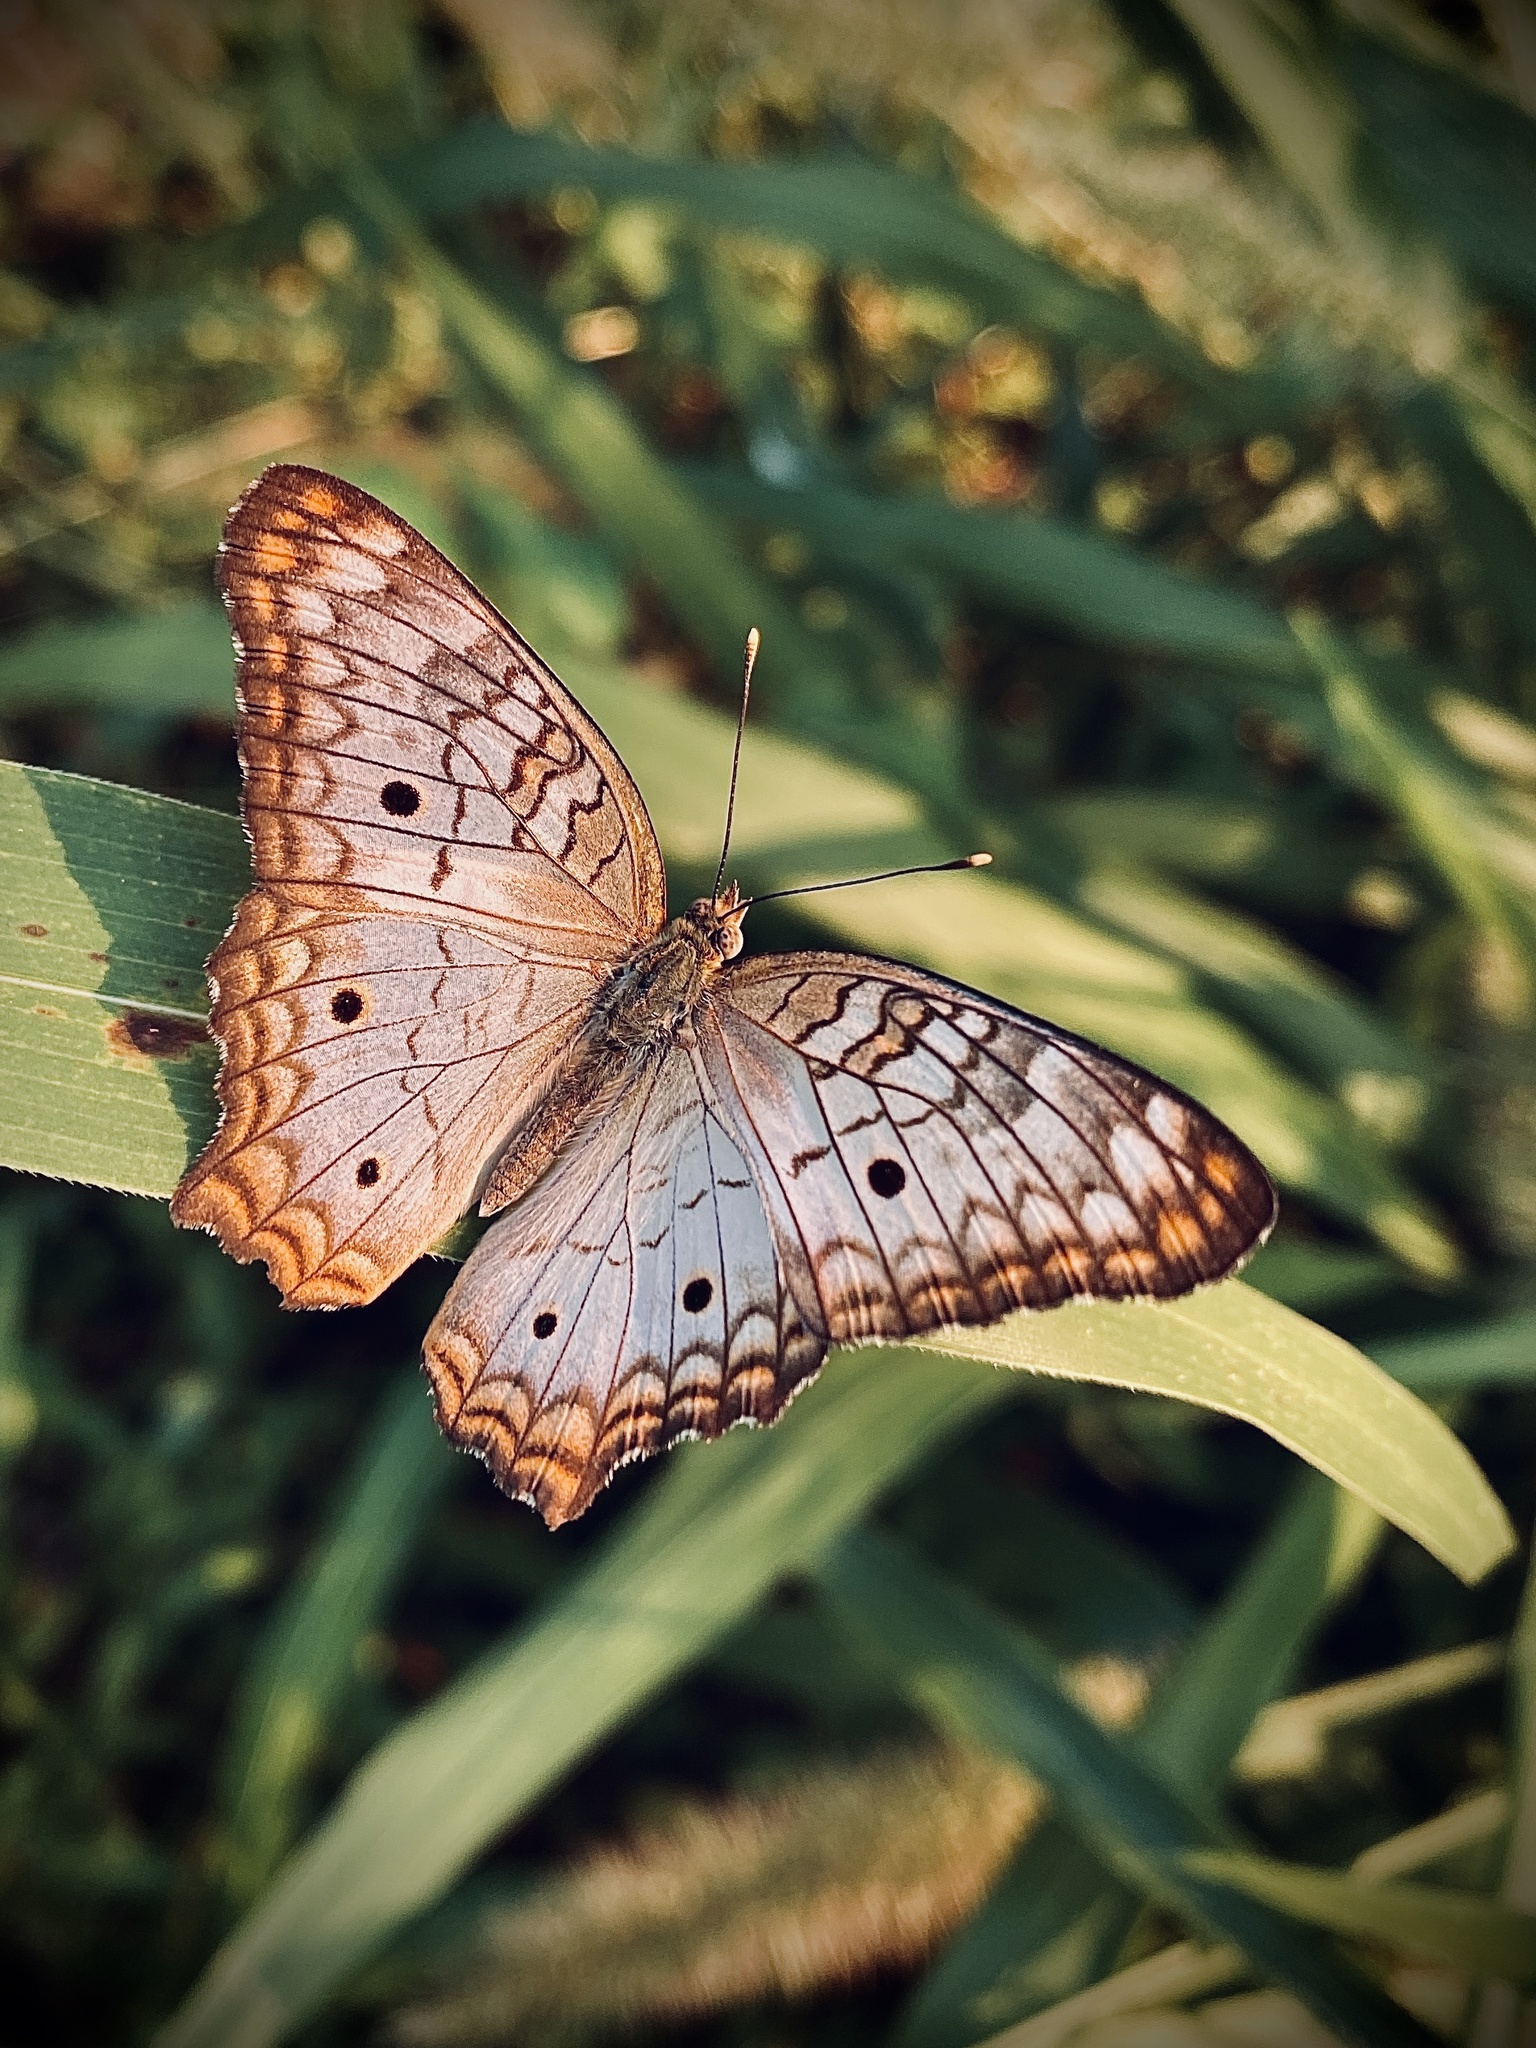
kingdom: Animalia
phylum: Arthropoda
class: Insecta
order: Lepidoptera
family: Nymphalidae
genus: Anartia
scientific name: Anartia jatrophae
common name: White peacock
